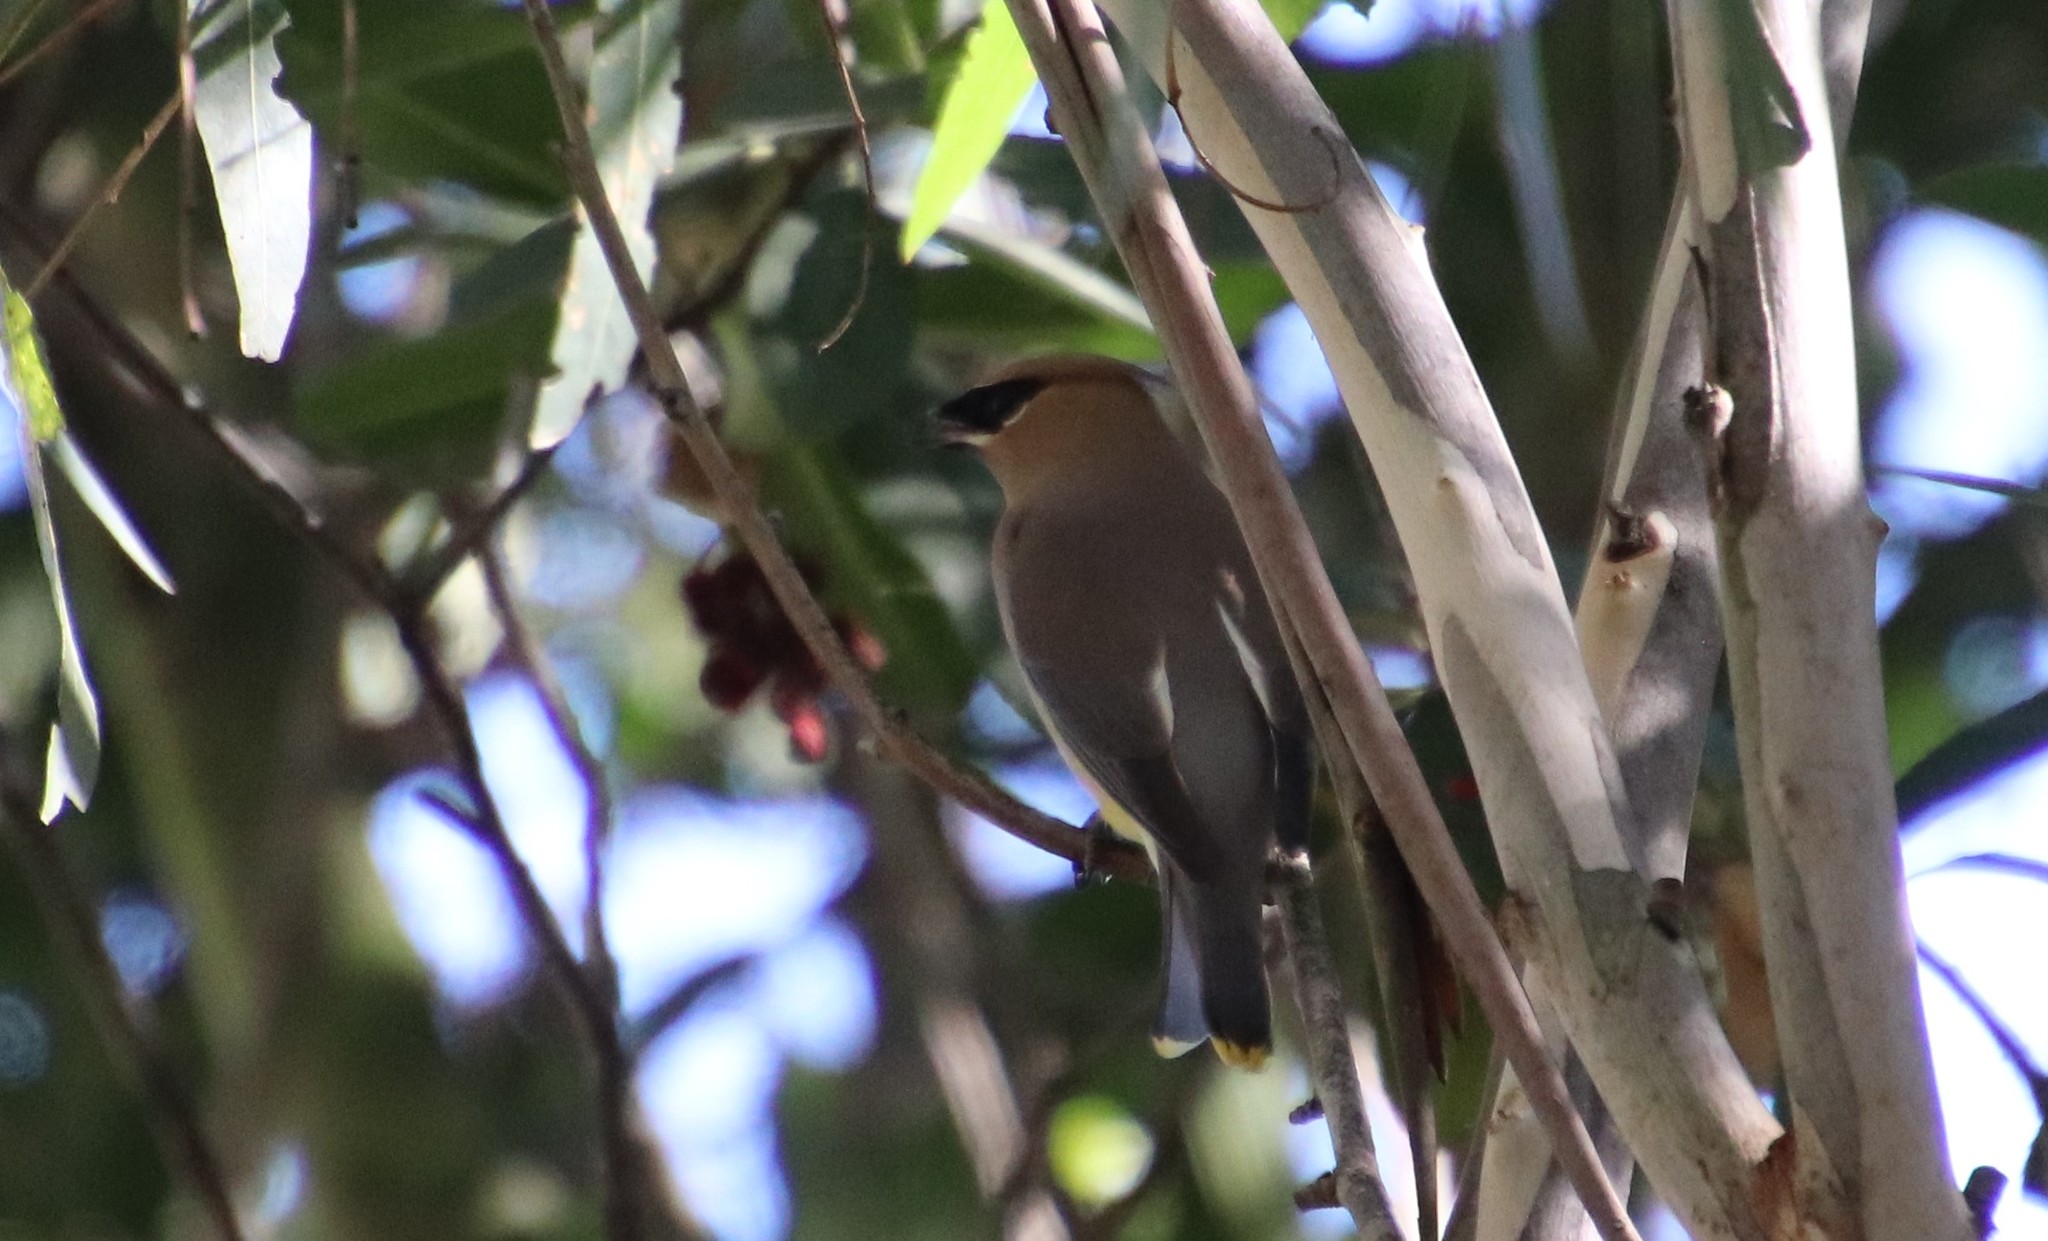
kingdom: Animalia
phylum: Chordata
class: Aves
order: Passeriformes
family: Bombycillidae
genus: Bombycilla
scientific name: Bombycilla cedrorum
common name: Cedar waxwing
